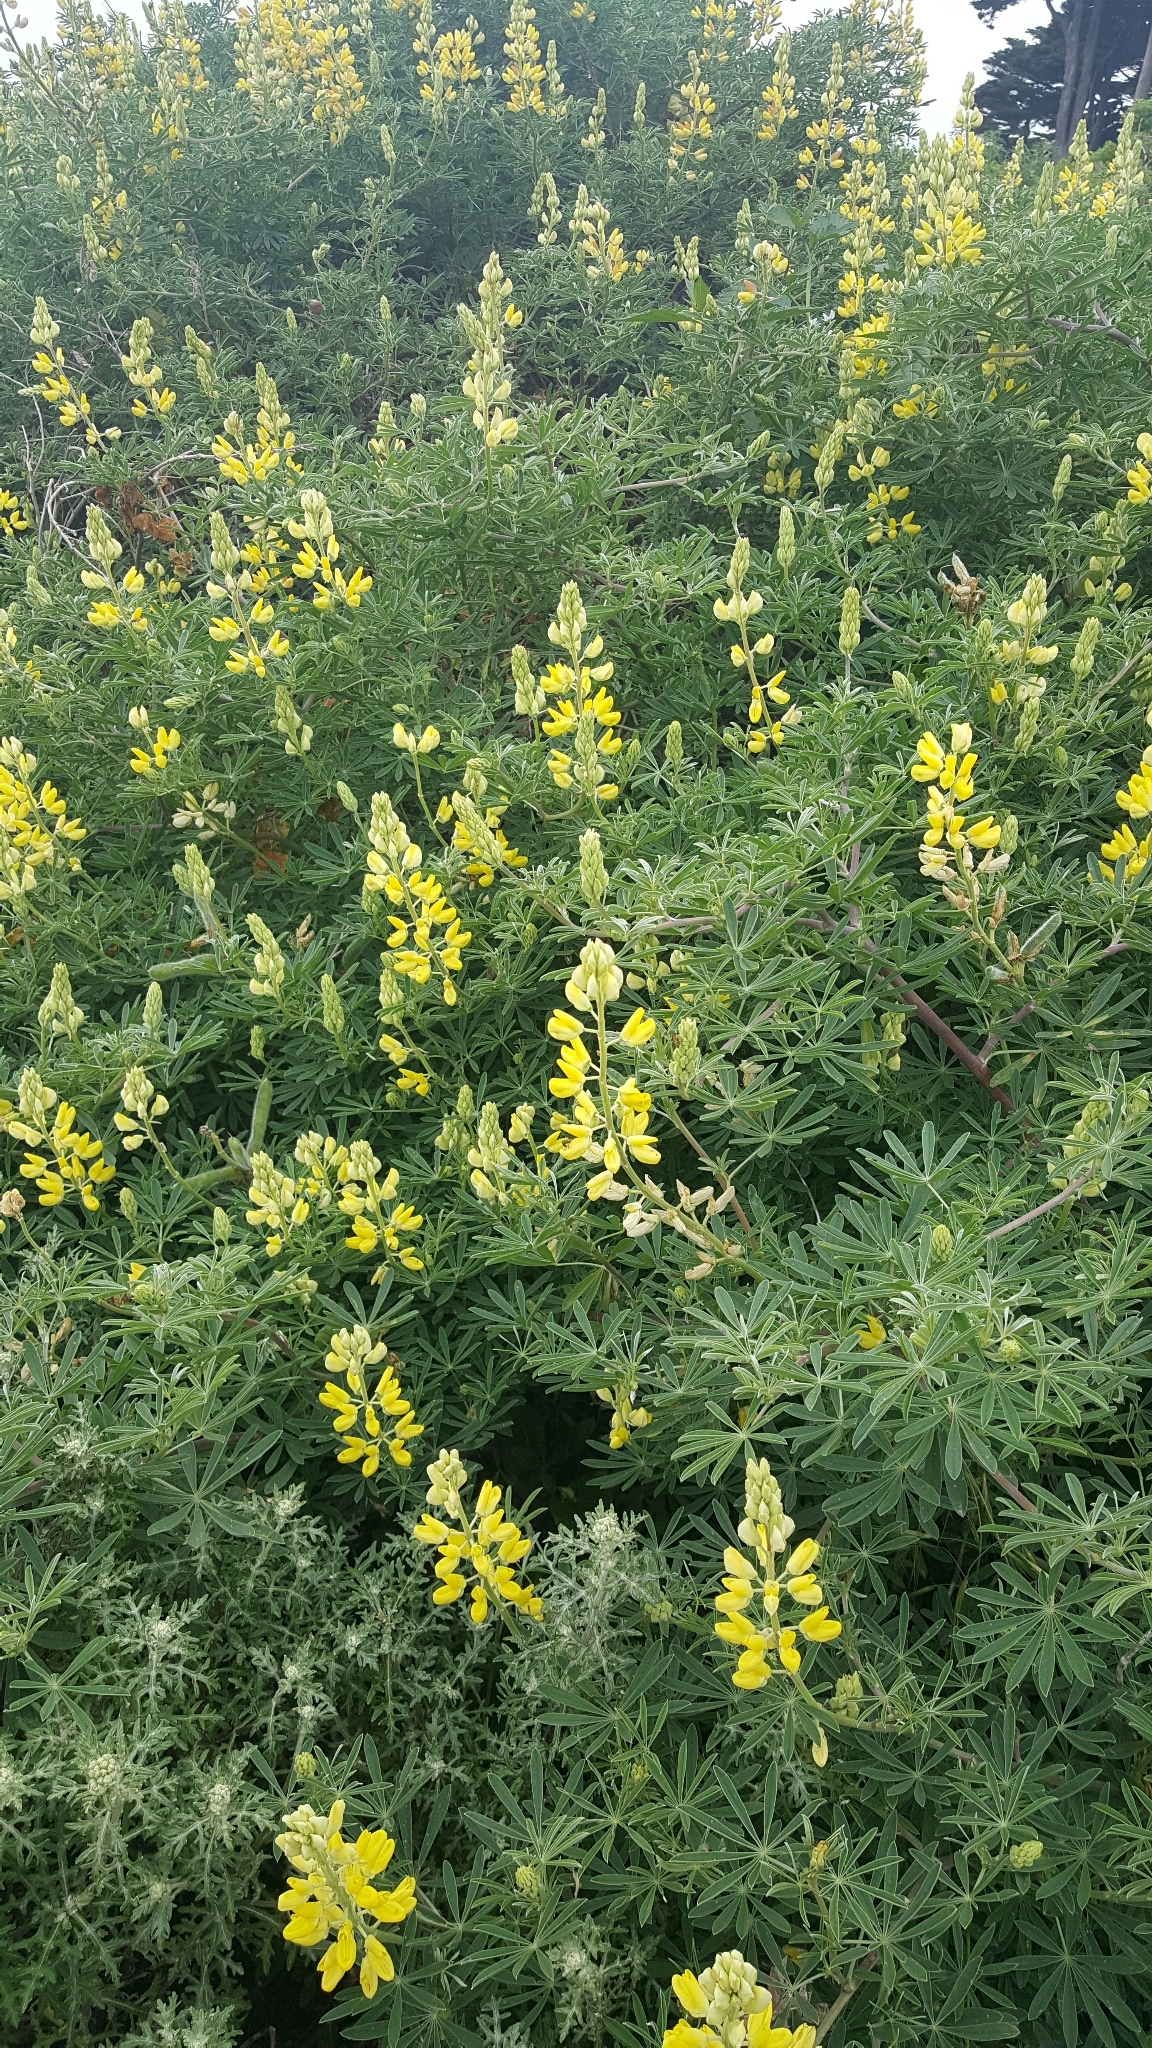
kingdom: Plantae
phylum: Tracheophyta
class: Magnoliopsida
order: Fabales
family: Fabaceae
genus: Lupinus
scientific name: Lupinus arboreus
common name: Yellow bush lupine
